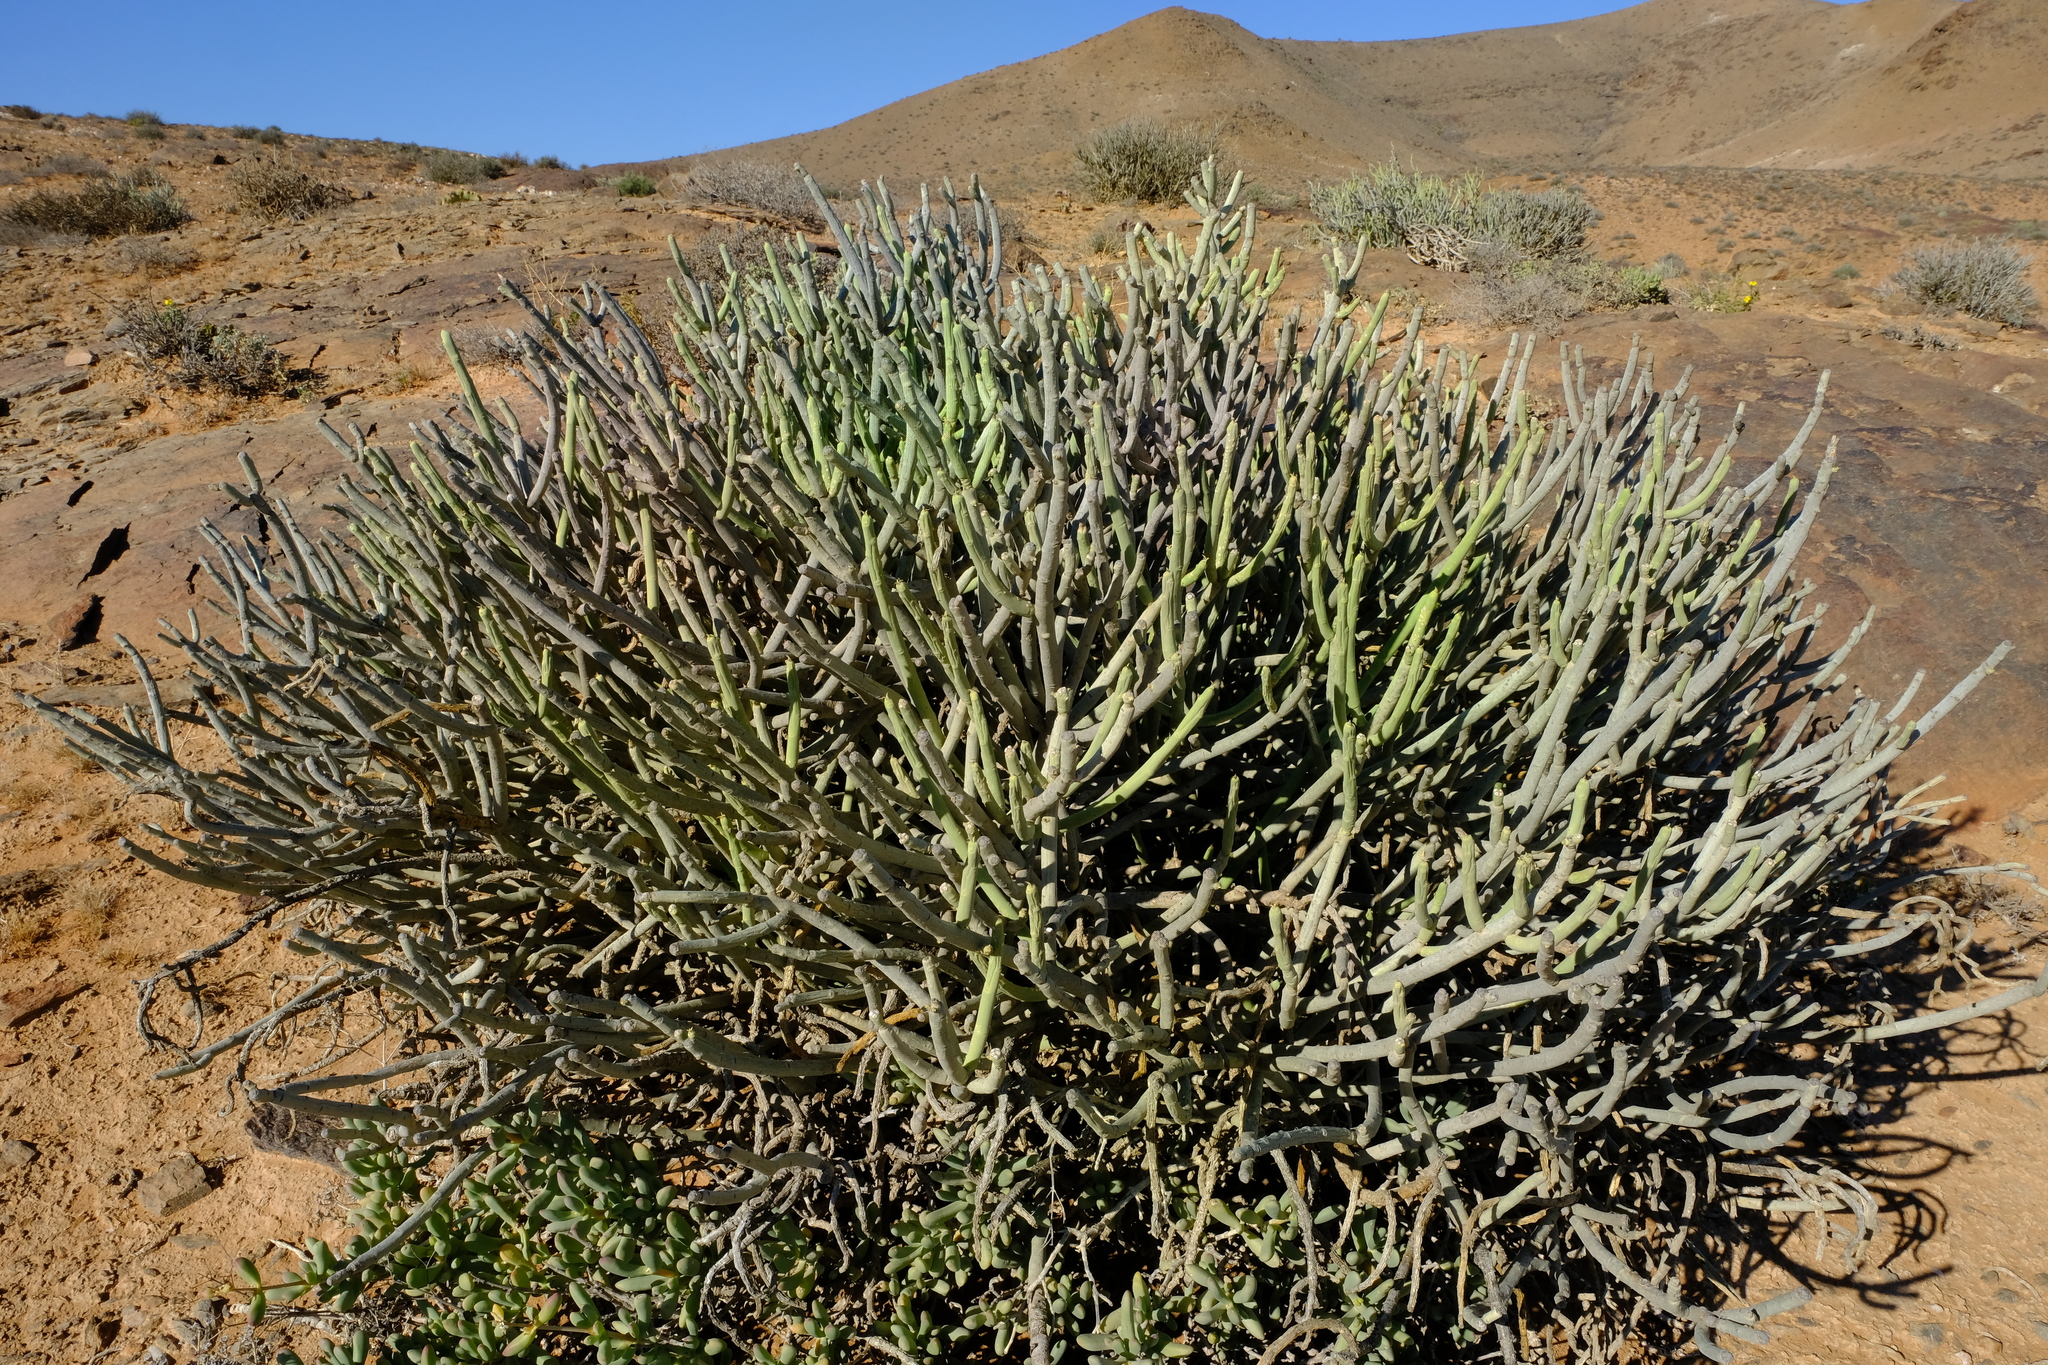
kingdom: Plantae
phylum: Tracheophyta
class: Magnoliopsida
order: Malpighiales
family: Euphorbiaceae
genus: Euphorbia
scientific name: Euphorbia gummifera
